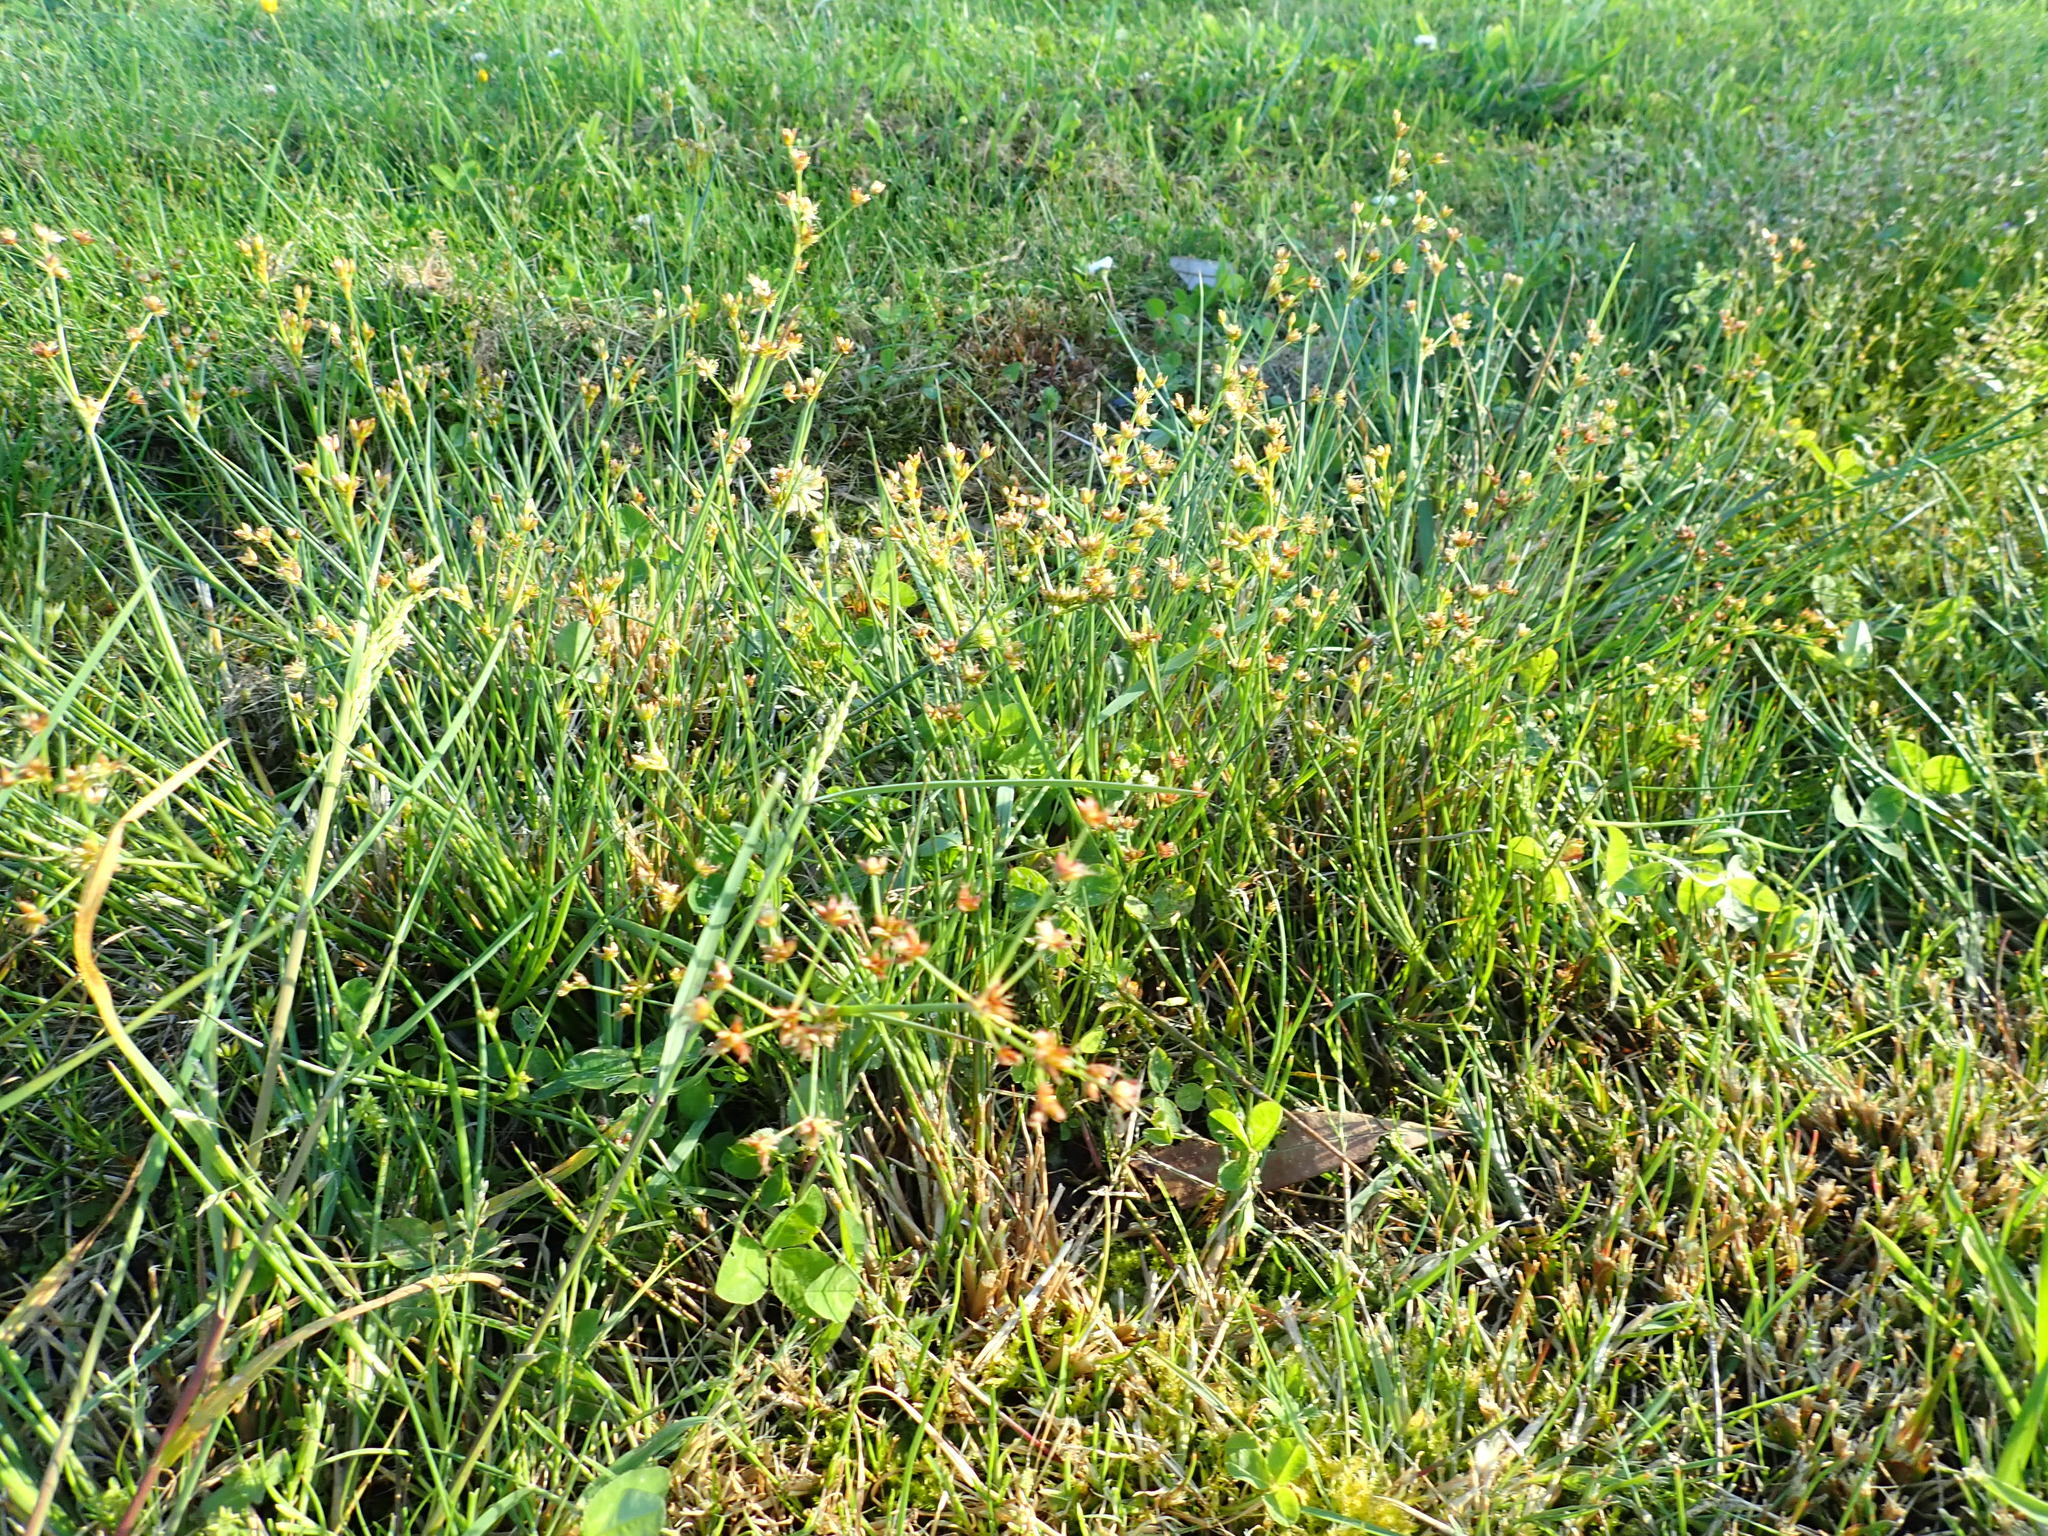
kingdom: Plantae
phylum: Tracheophyta
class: Liliopsida
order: Poales
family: Juncaceae
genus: Juncus
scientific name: Juncus articulatus
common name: Jointed rush
